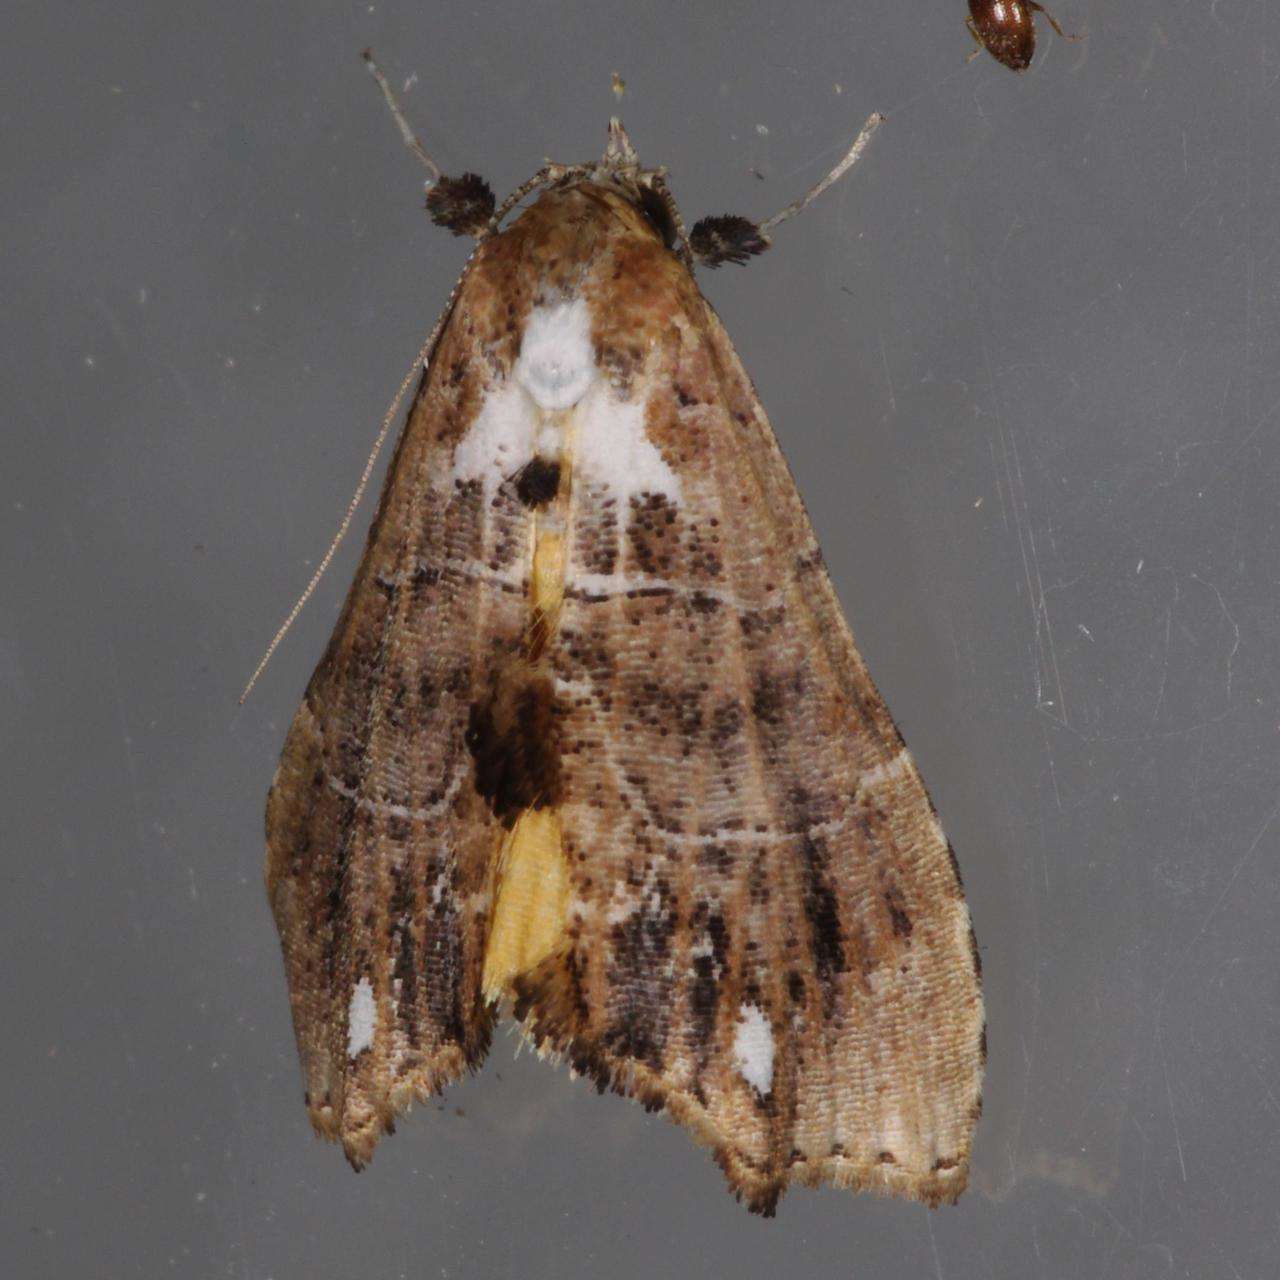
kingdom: Animalia
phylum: Arthropoda
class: Insecta
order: Lepidoptera
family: Erebidae
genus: Arrade
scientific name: Arrade leucocosmalis
